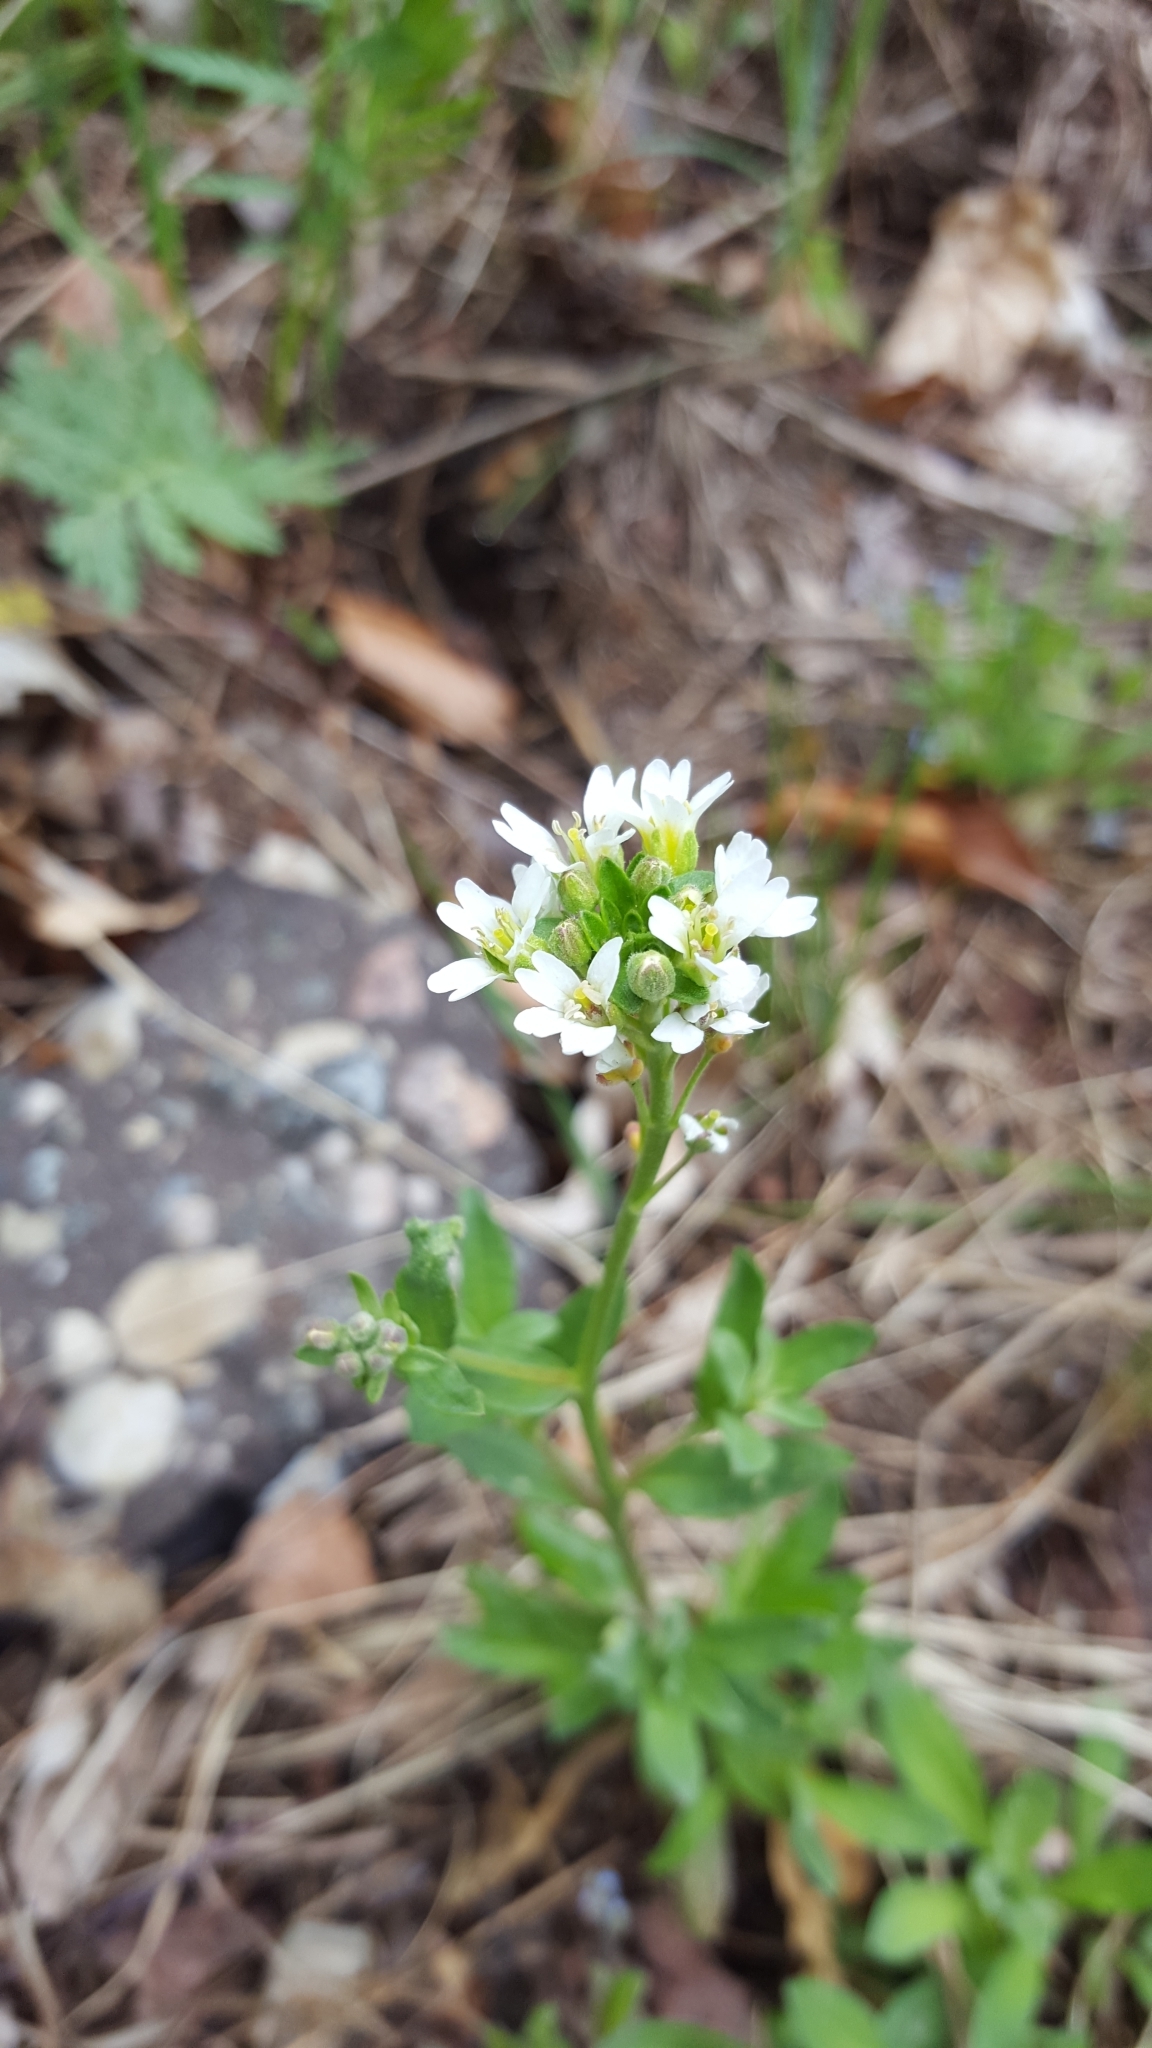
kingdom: Plantae
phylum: Tracheophyta
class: Magnoliopsida
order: Brassicales
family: Brassicaceae
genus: Berteroa
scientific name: Berteroa incana
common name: Hoary alison
